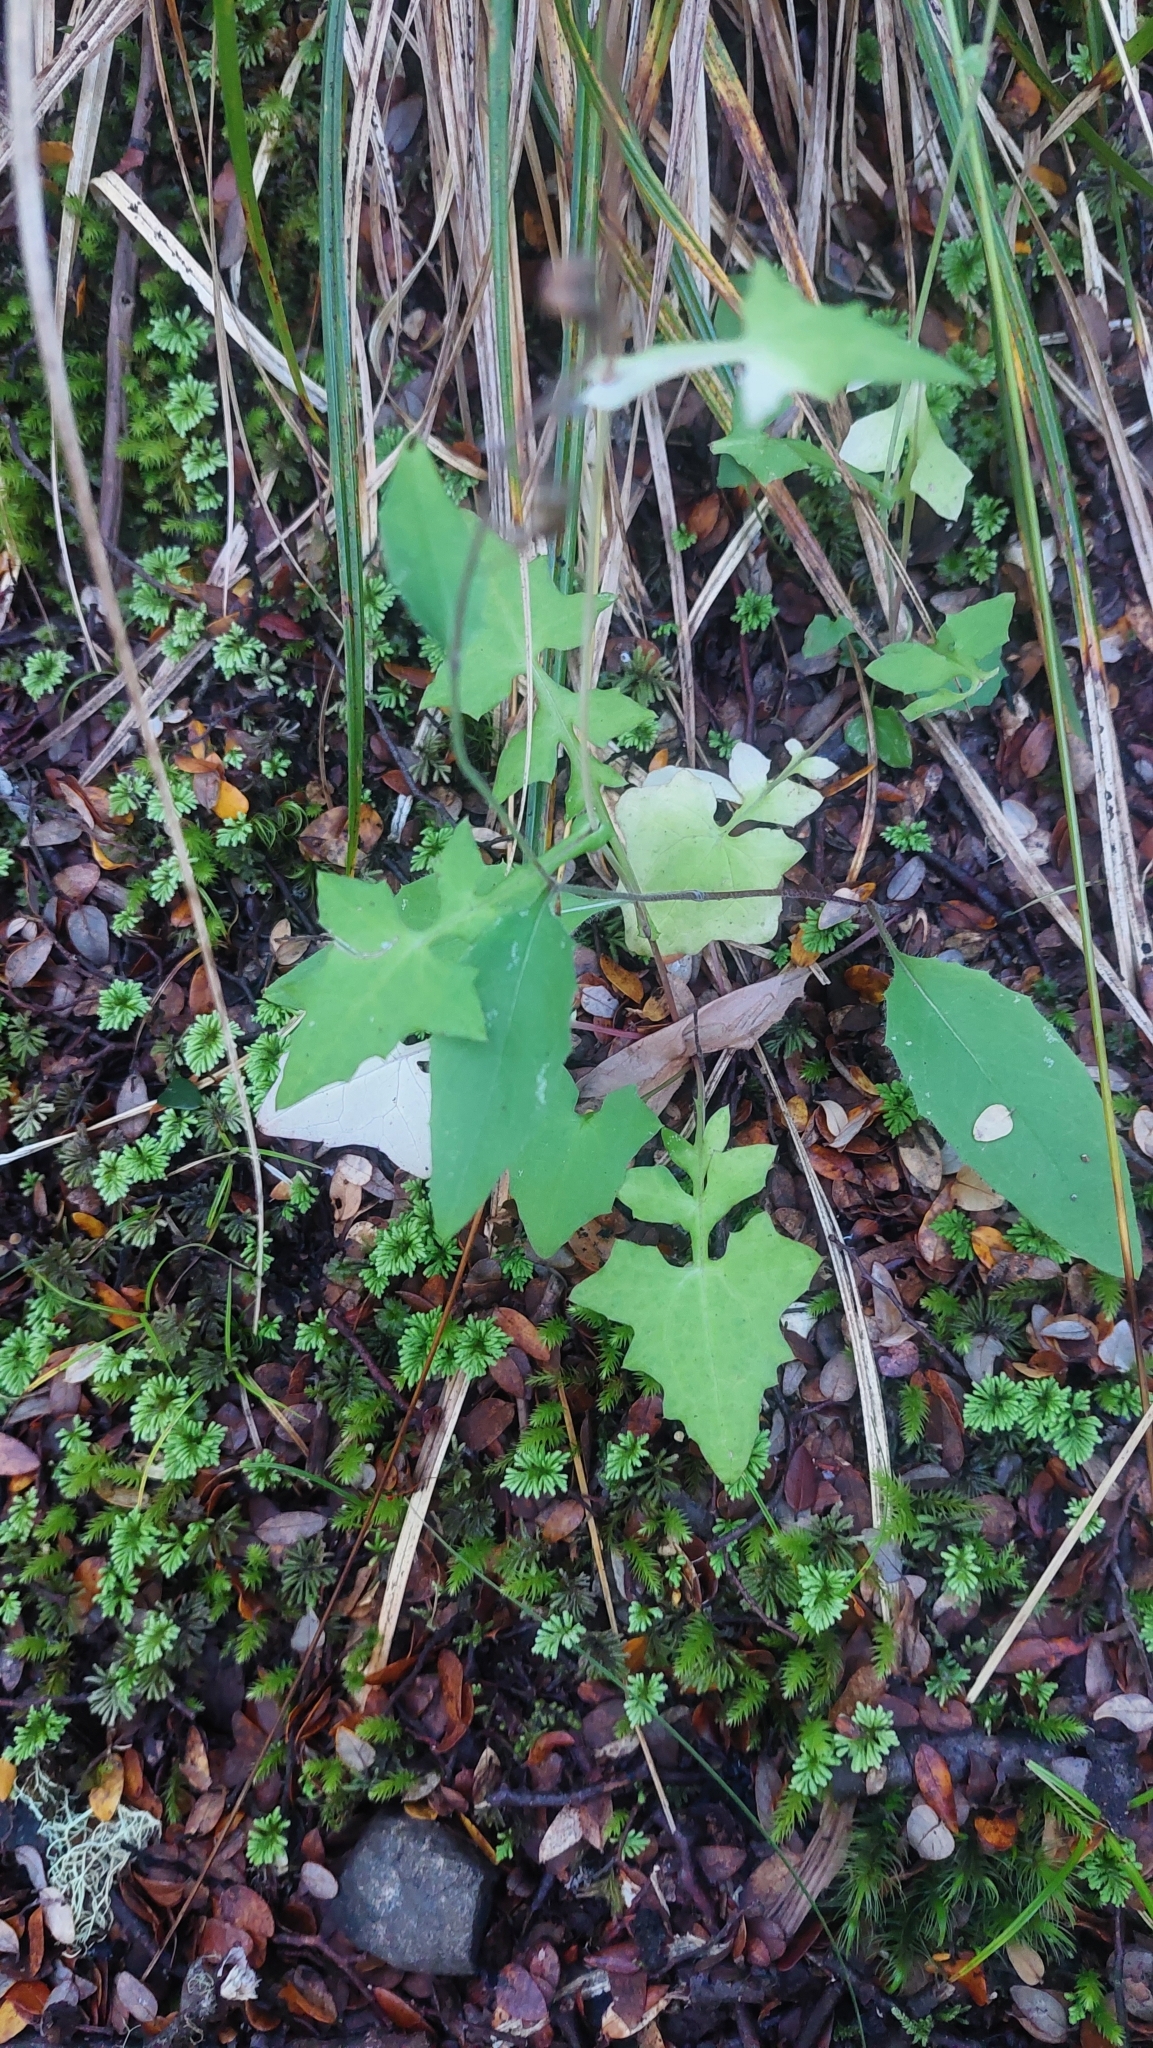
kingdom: Plantae
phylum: Tracheophyta
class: Magnoliopsida
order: Asterales
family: Asteraceae
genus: Mycelis
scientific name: Mycelis muralis
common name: Wall lettuce
